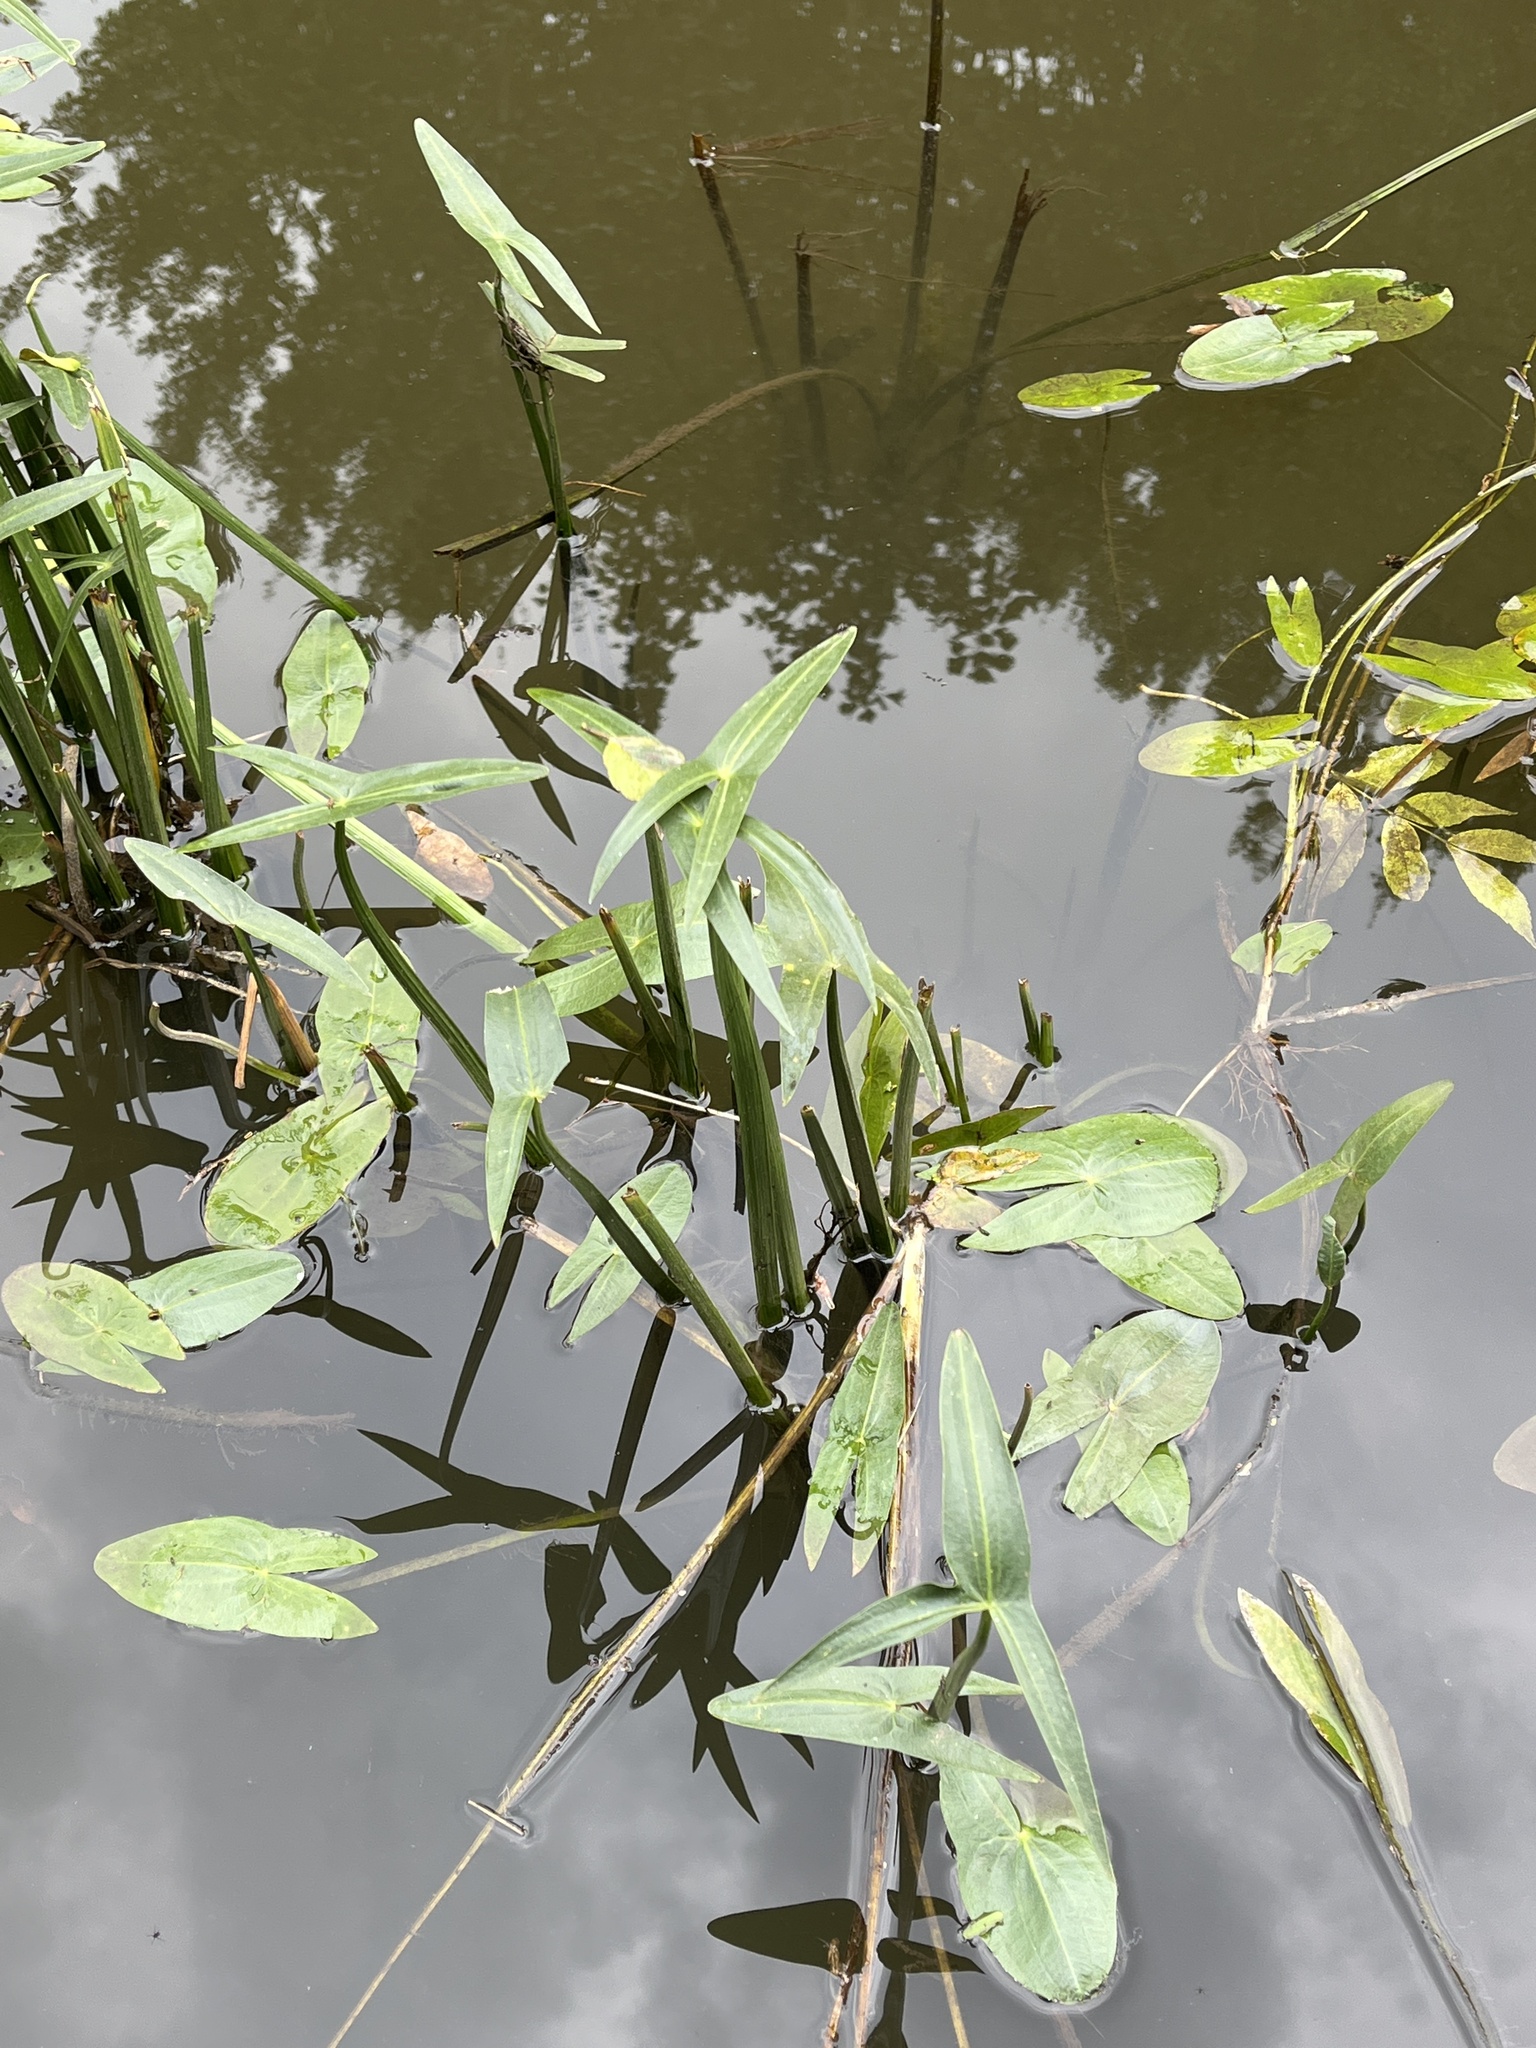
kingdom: Plantae
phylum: Tracheophyta
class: Liliopsida
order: Alismatales
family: Alismataceae
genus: Sagittaria
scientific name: Sagittaria sagittifolia
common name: Arrowhead
